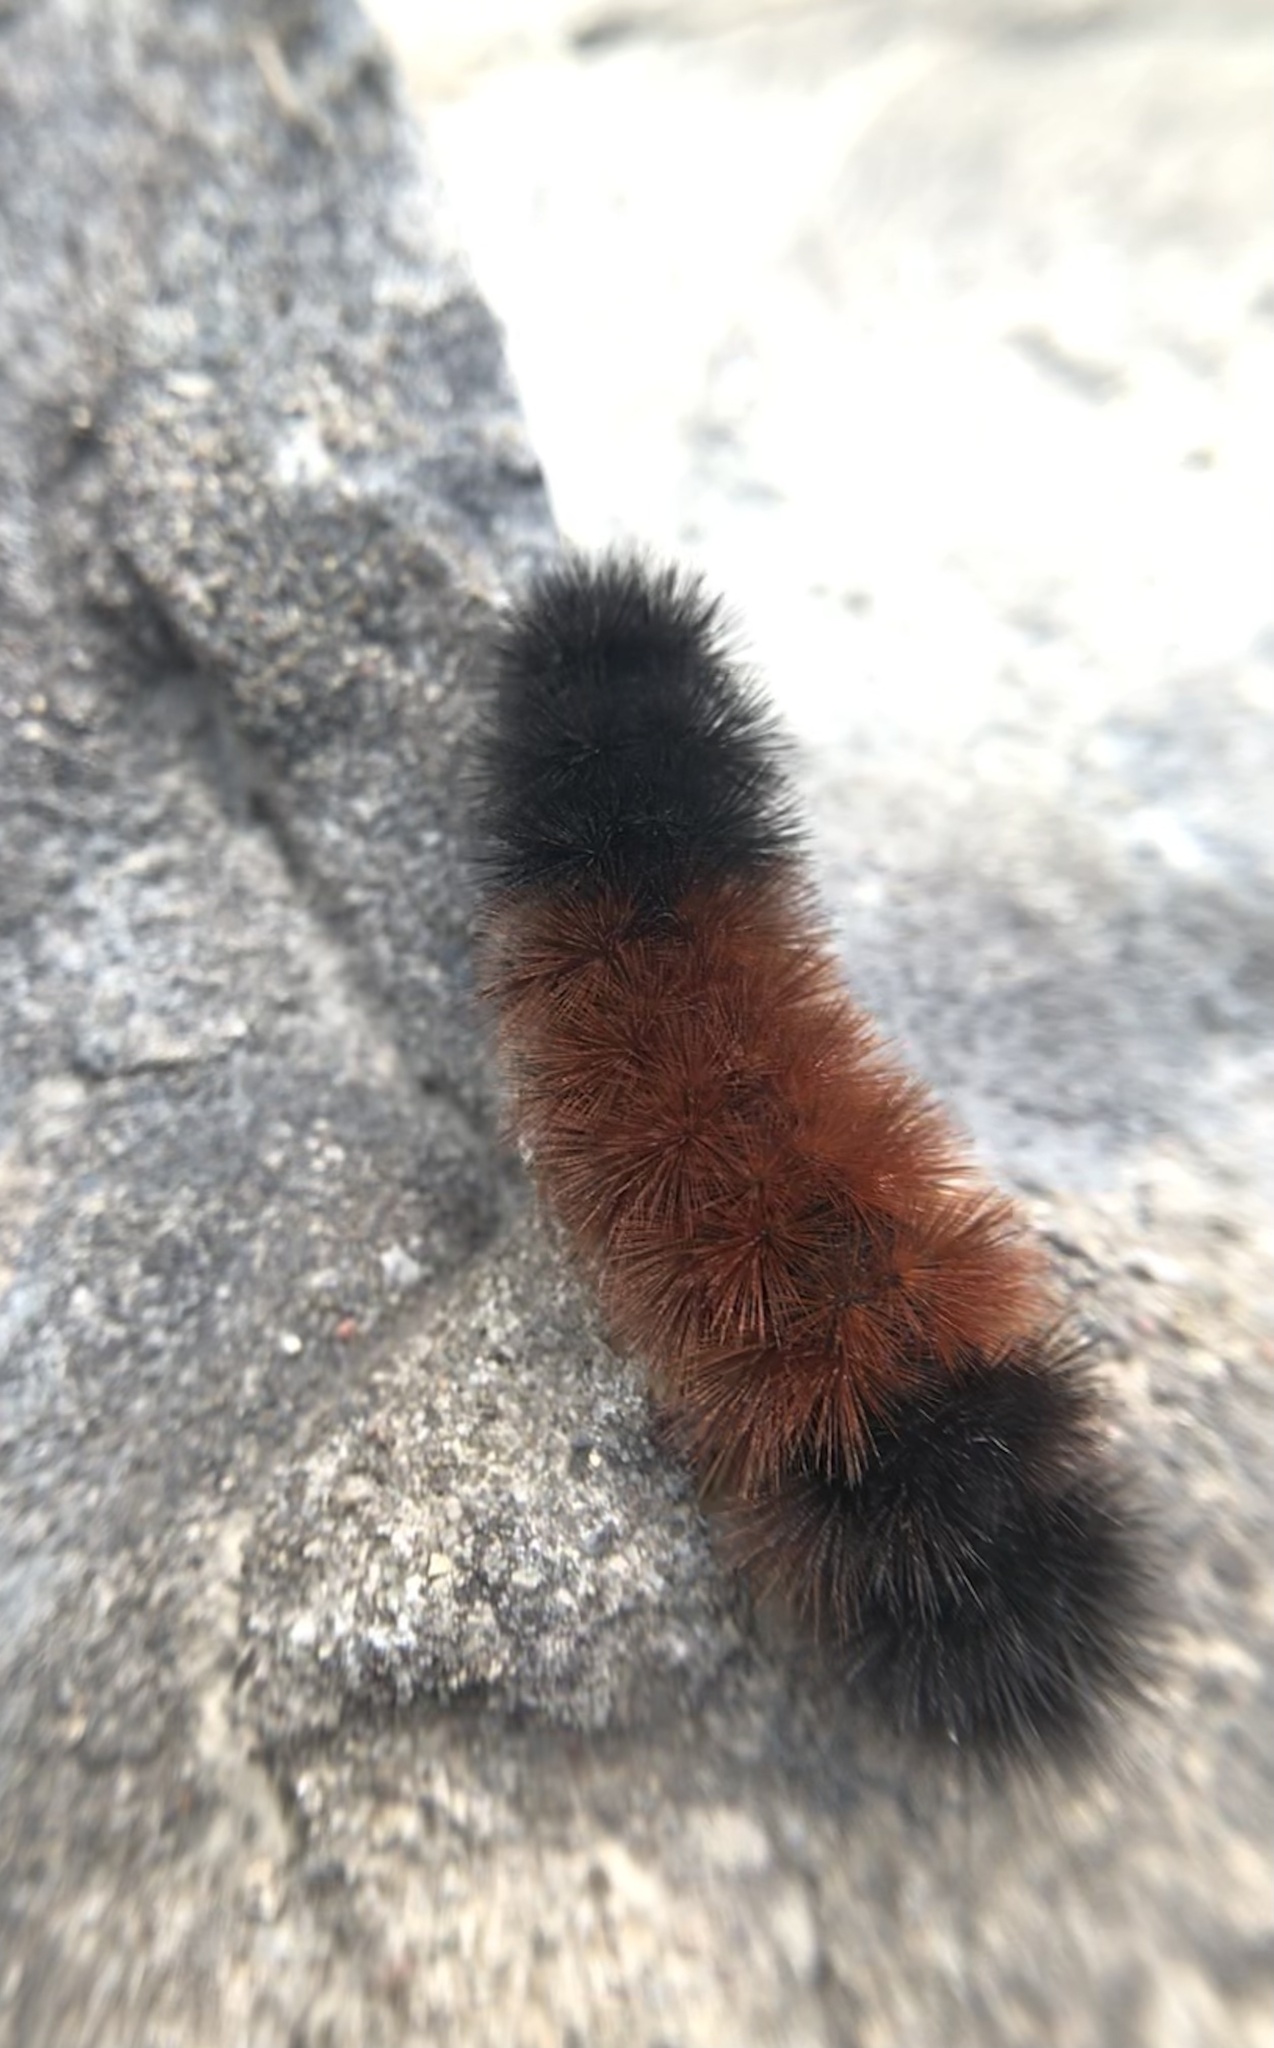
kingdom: Animalia
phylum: Arthropoda
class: Insecta
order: Lepidoptera
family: Erebidae
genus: Pyrrharctia
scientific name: Pyrrharctia isabella
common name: Isabella tiger moth
